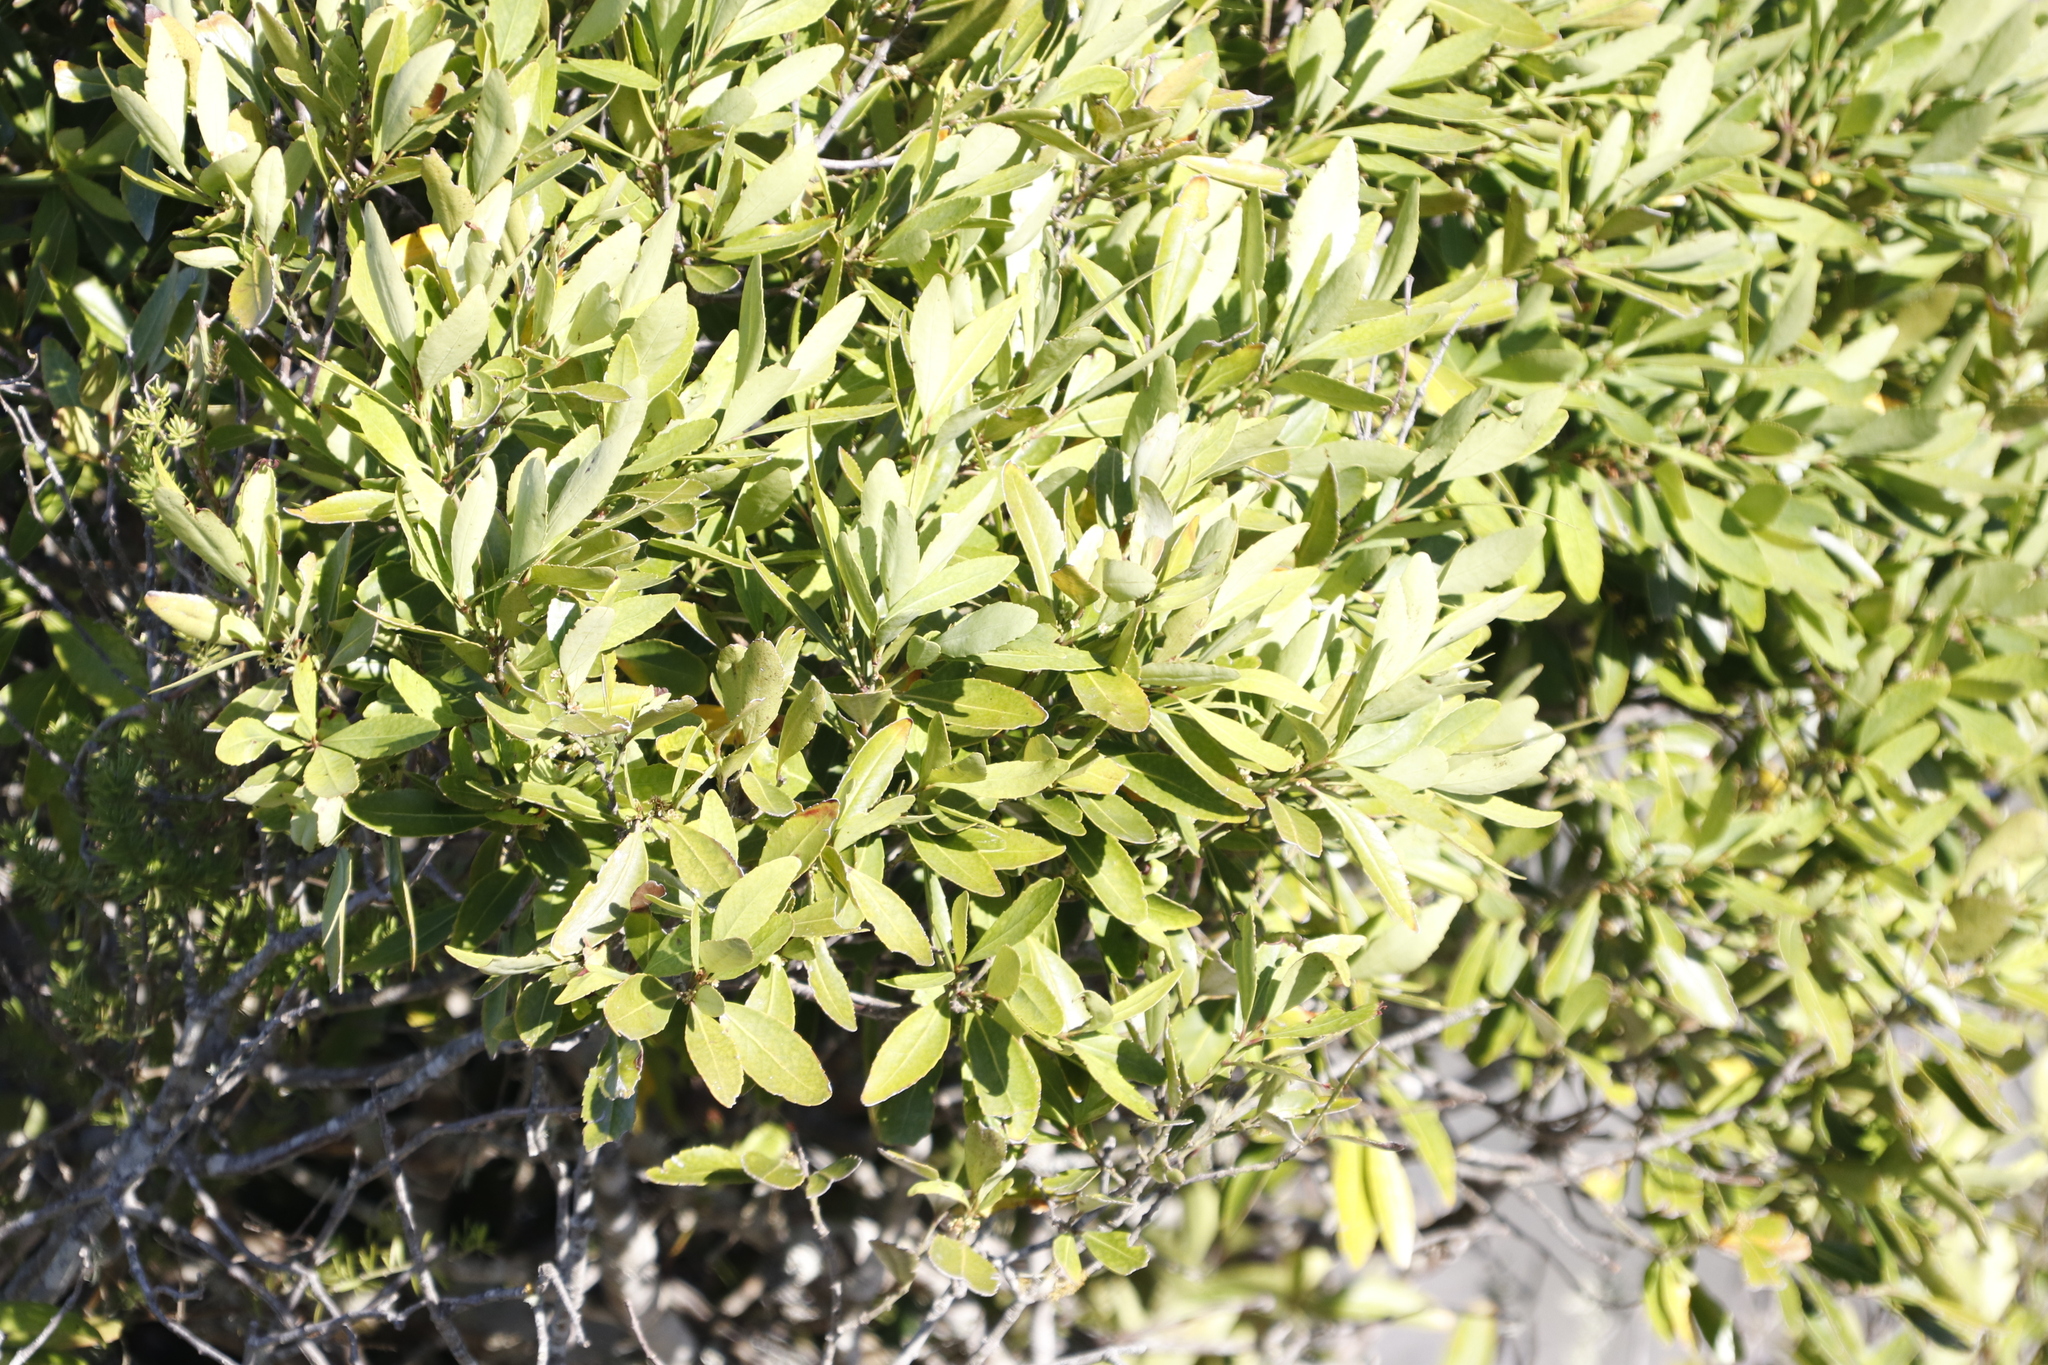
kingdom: Plantae
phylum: Tracheophyta
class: Magnoliopsida
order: Celastrales
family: Celastraceae
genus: Elaeodendron
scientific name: Elaeodendron schinoides
